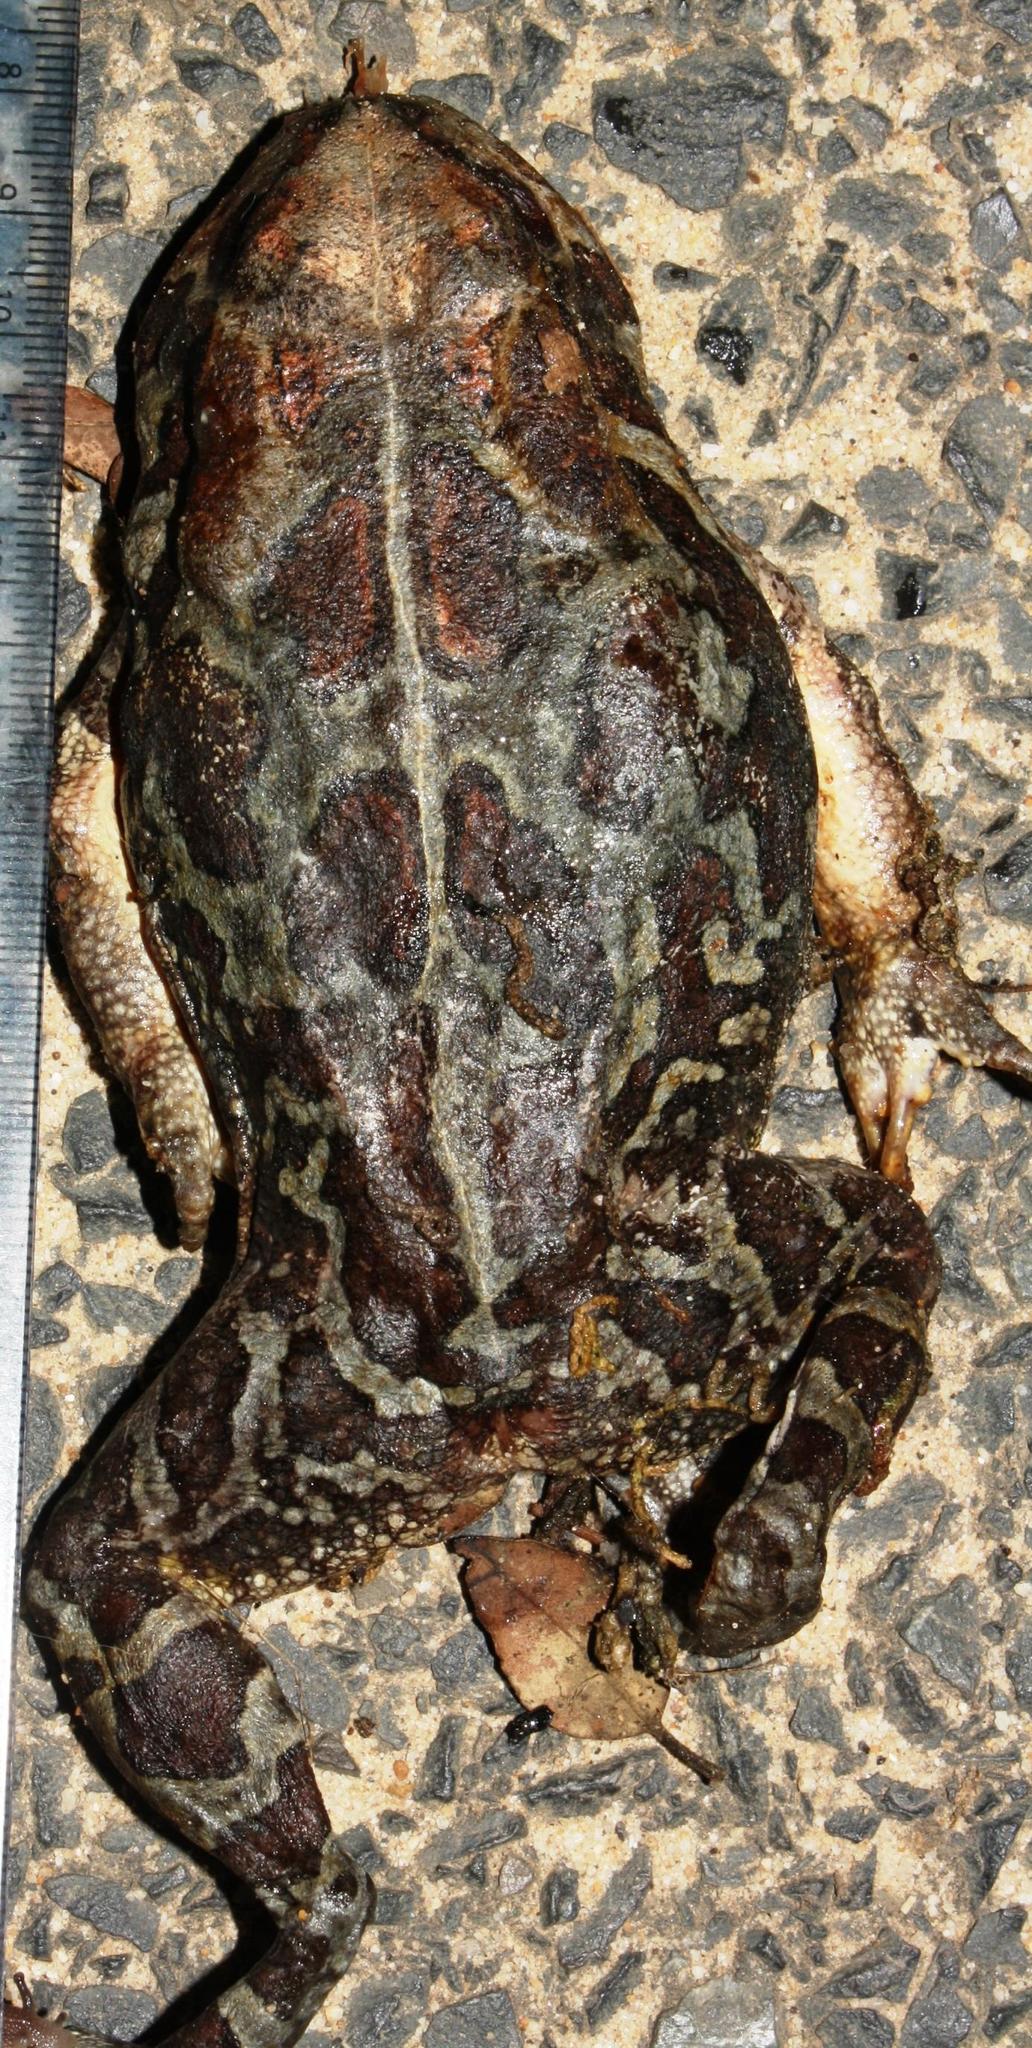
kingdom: Animalia
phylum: Chordata
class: Amphibia
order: Anura
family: Bufonidae
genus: Sclerophrys
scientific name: Sclerophrys pantherina
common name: Panther toad
